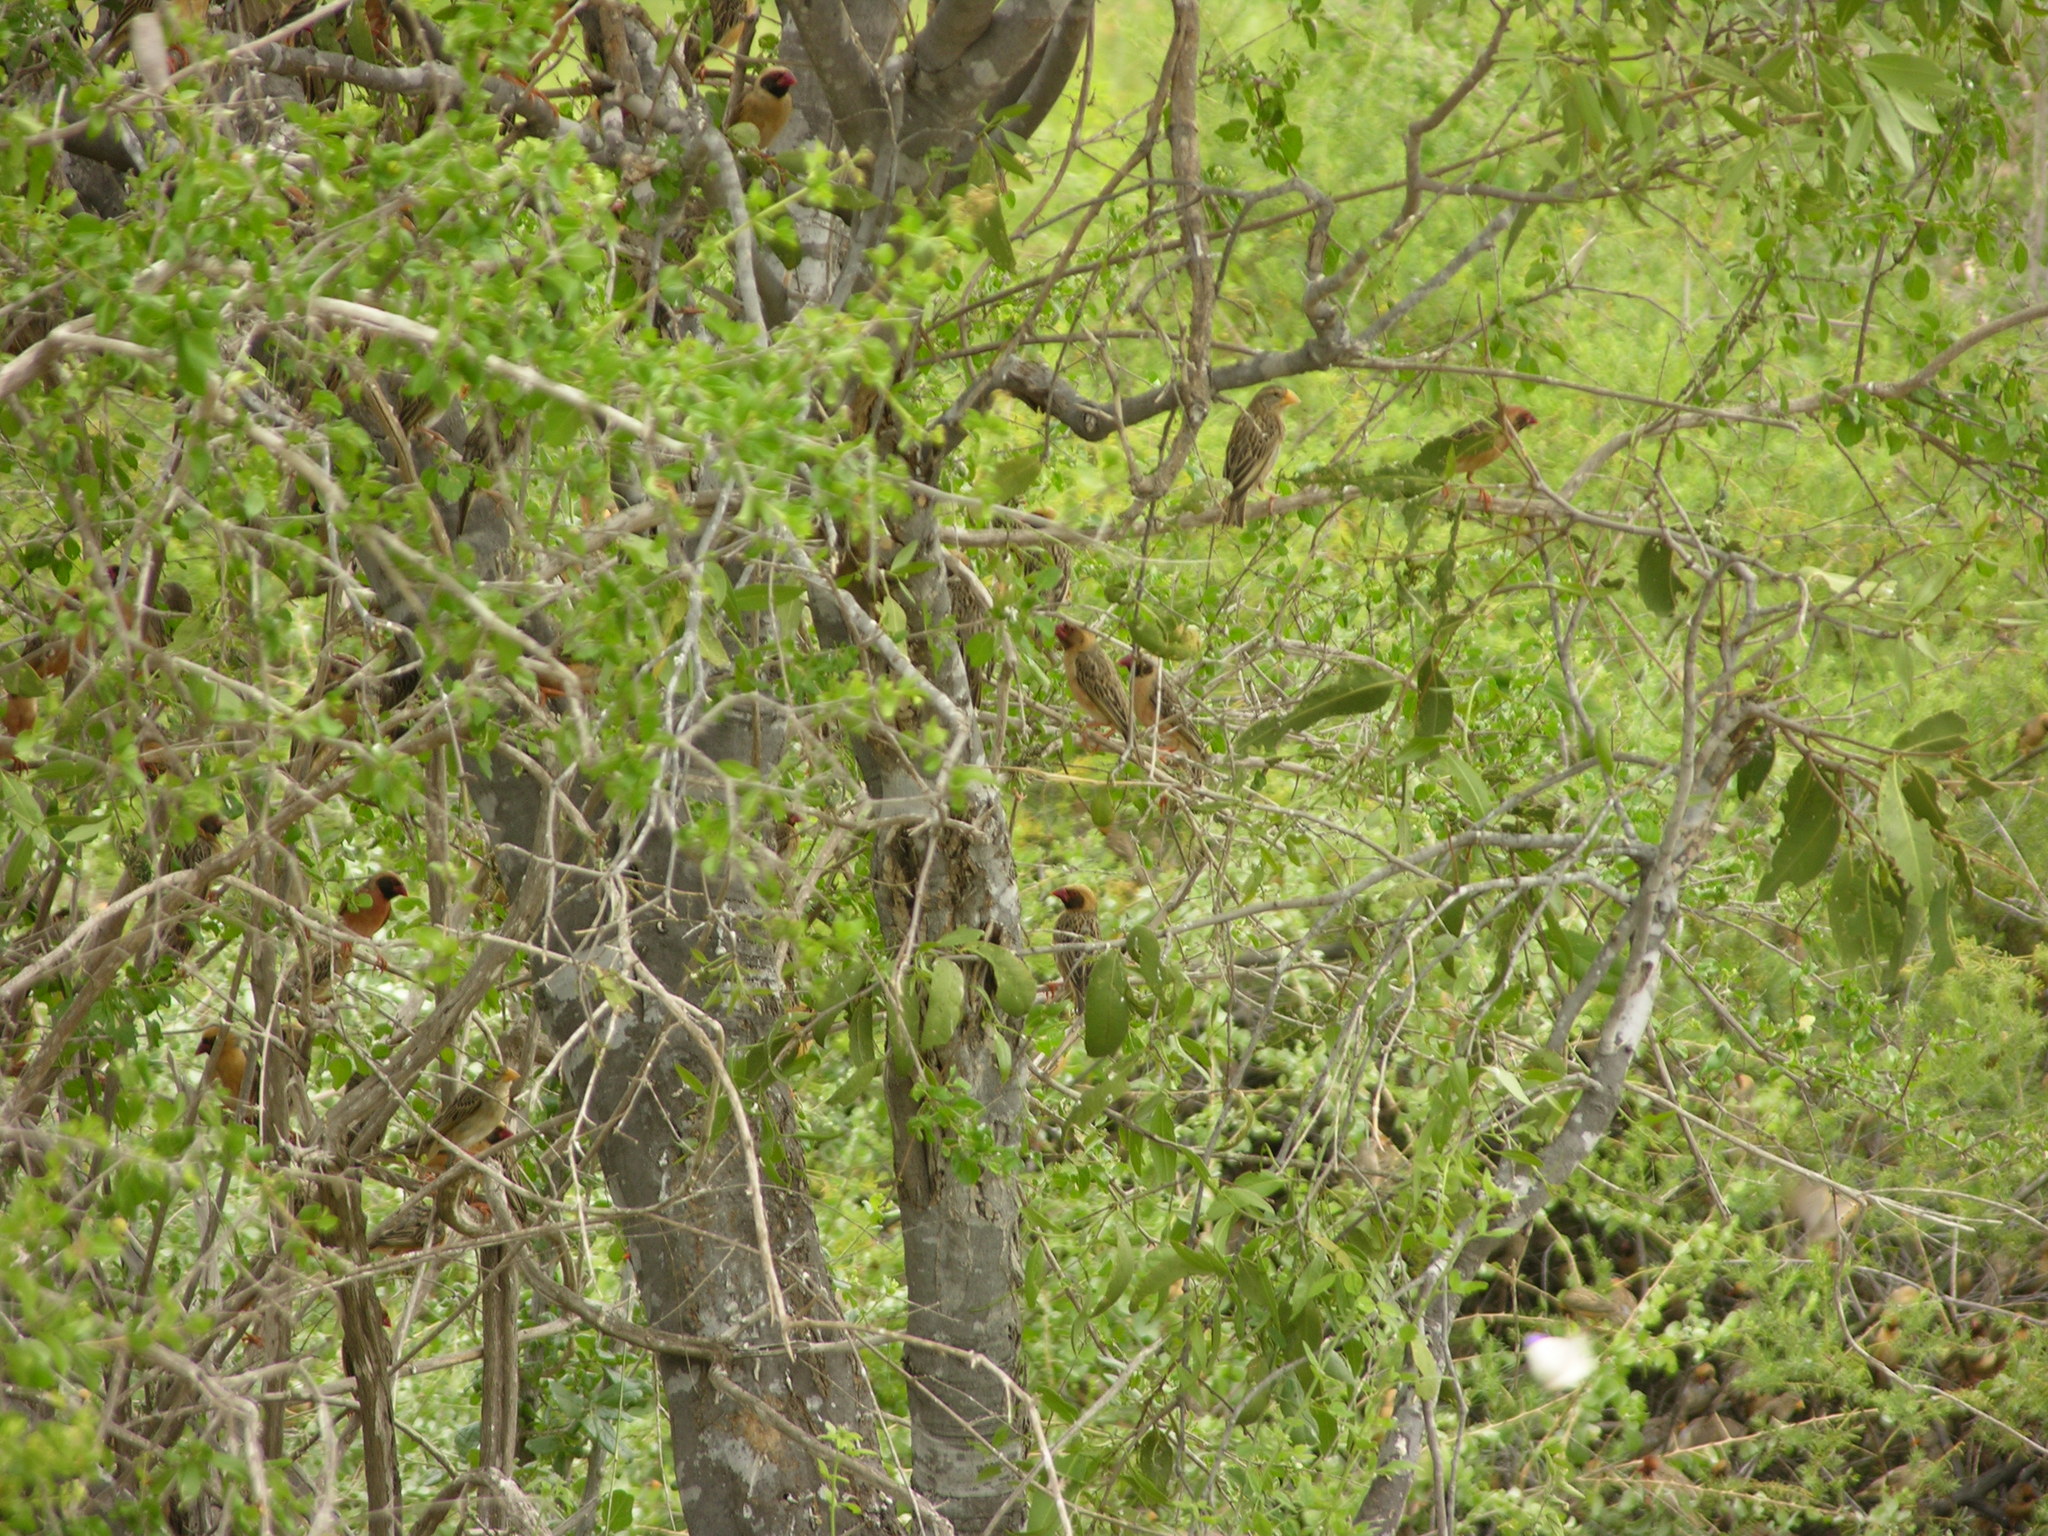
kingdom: Animalia
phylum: Chordata
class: Aves
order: Passeriformes
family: Ploceidae
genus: Quelea
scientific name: Quelea quelea
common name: Red-billed quelea
